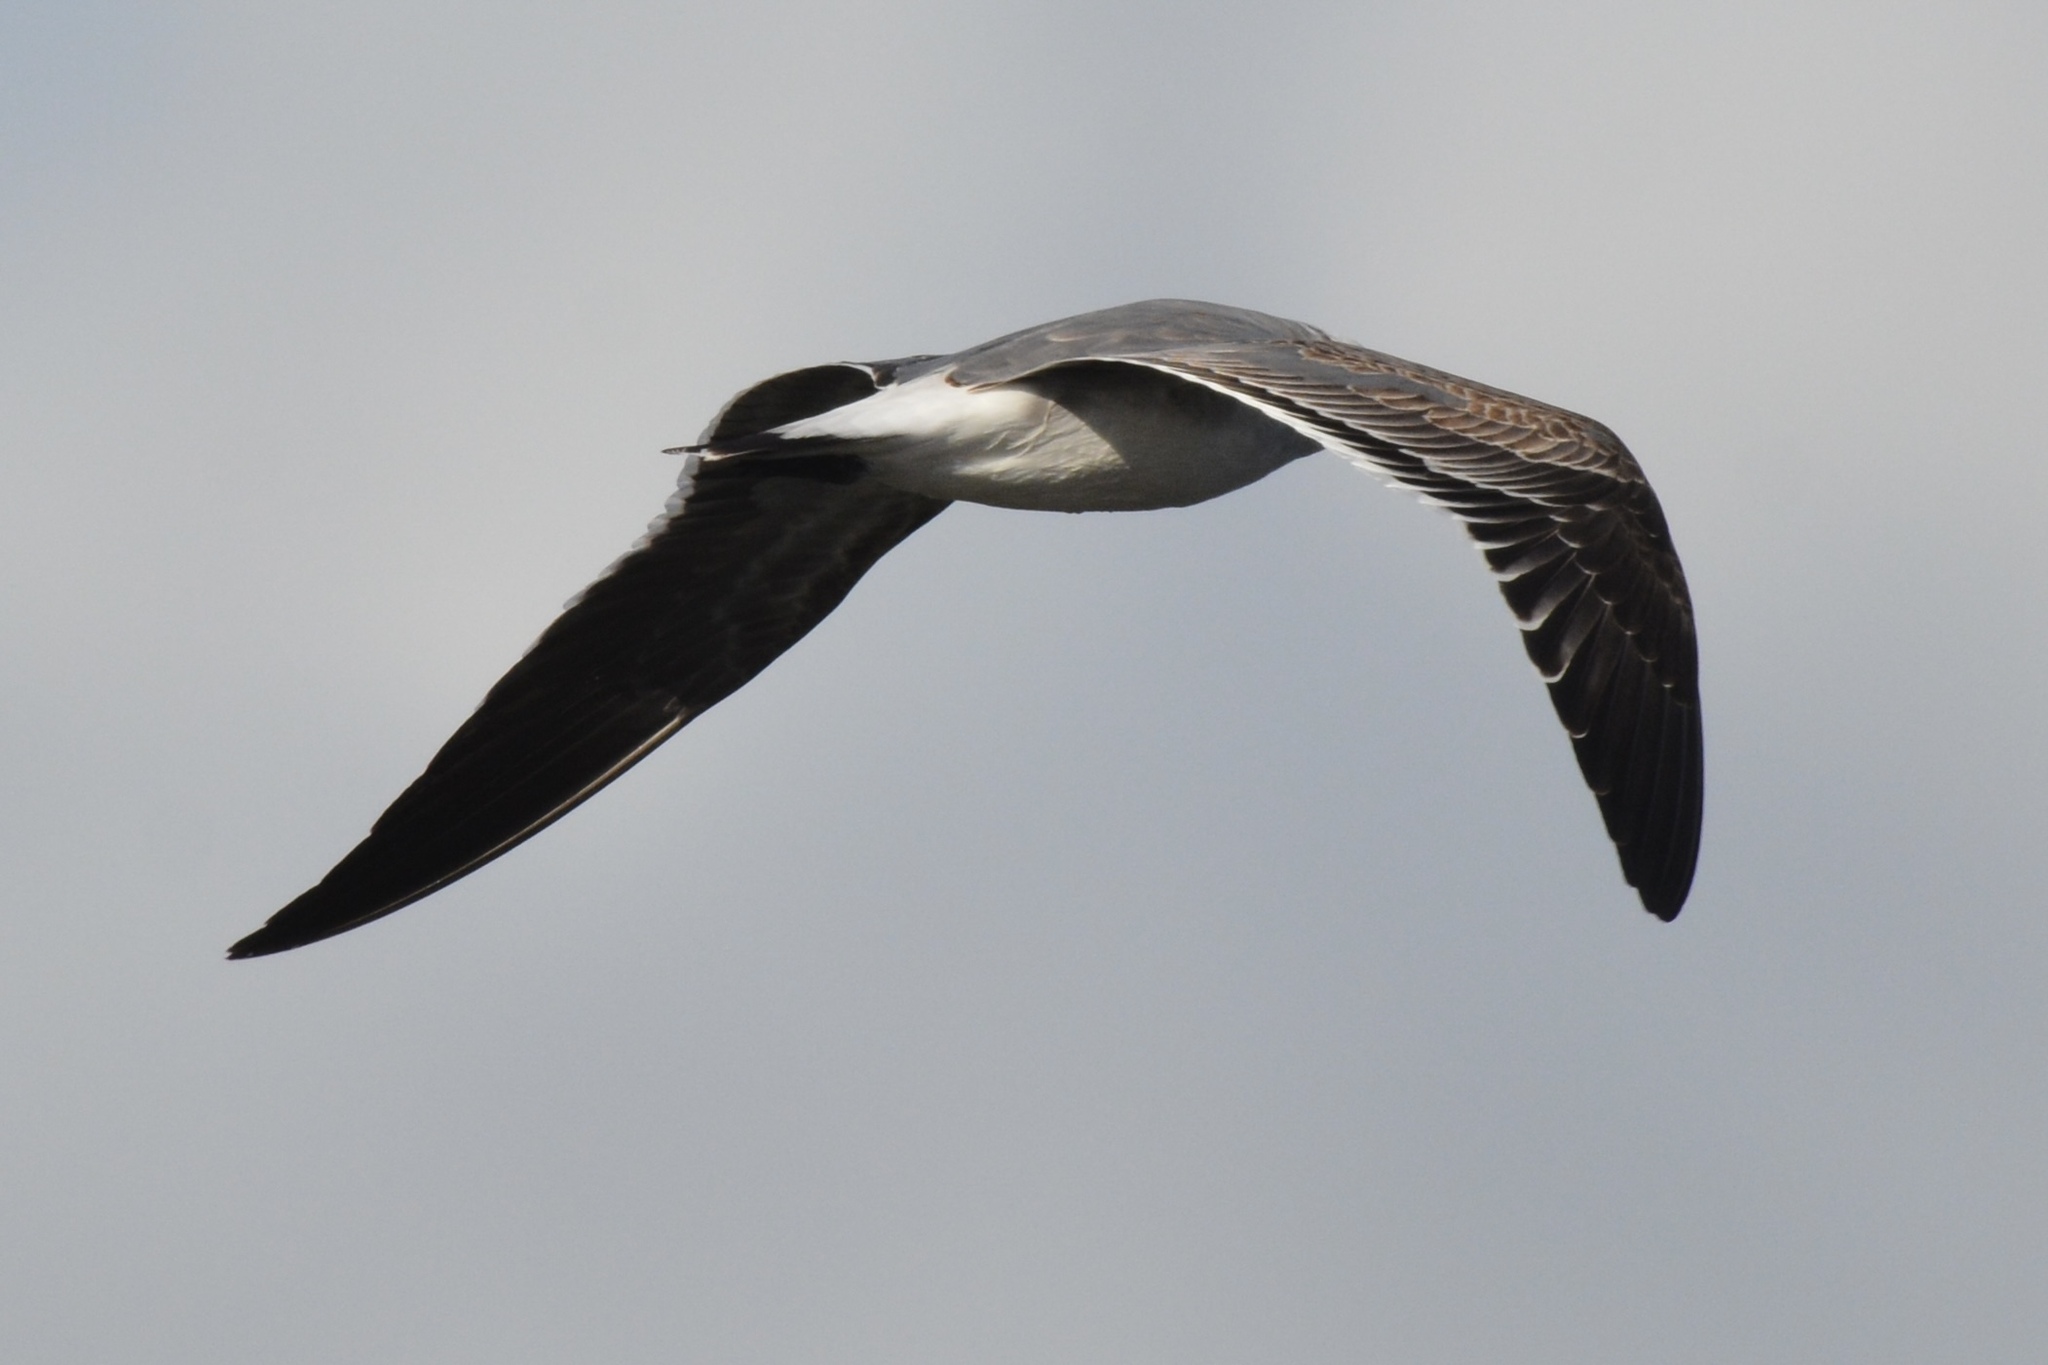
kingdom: Animalia
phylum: Chordata
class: Aves
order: Charadriiformes
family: Laridae
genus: Leucophaeus
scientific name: Leucophaeus atricilla
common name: Laughing gull
